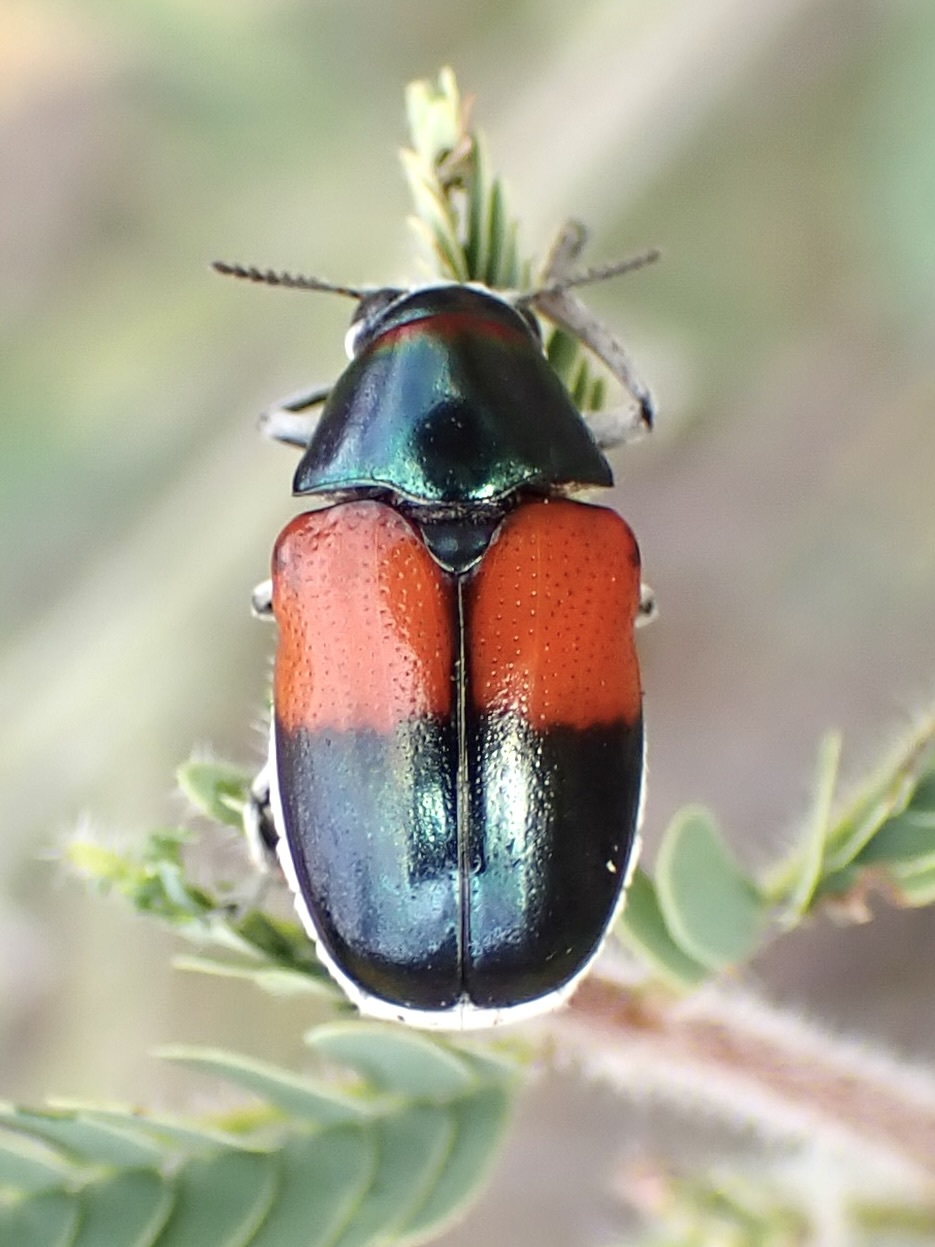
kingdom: Animalia
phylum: Arthropoda
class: Insecta
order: Coleoptera
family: Chrysomelidae
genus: Megalostomis
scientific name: Megalostomis pyropyga
